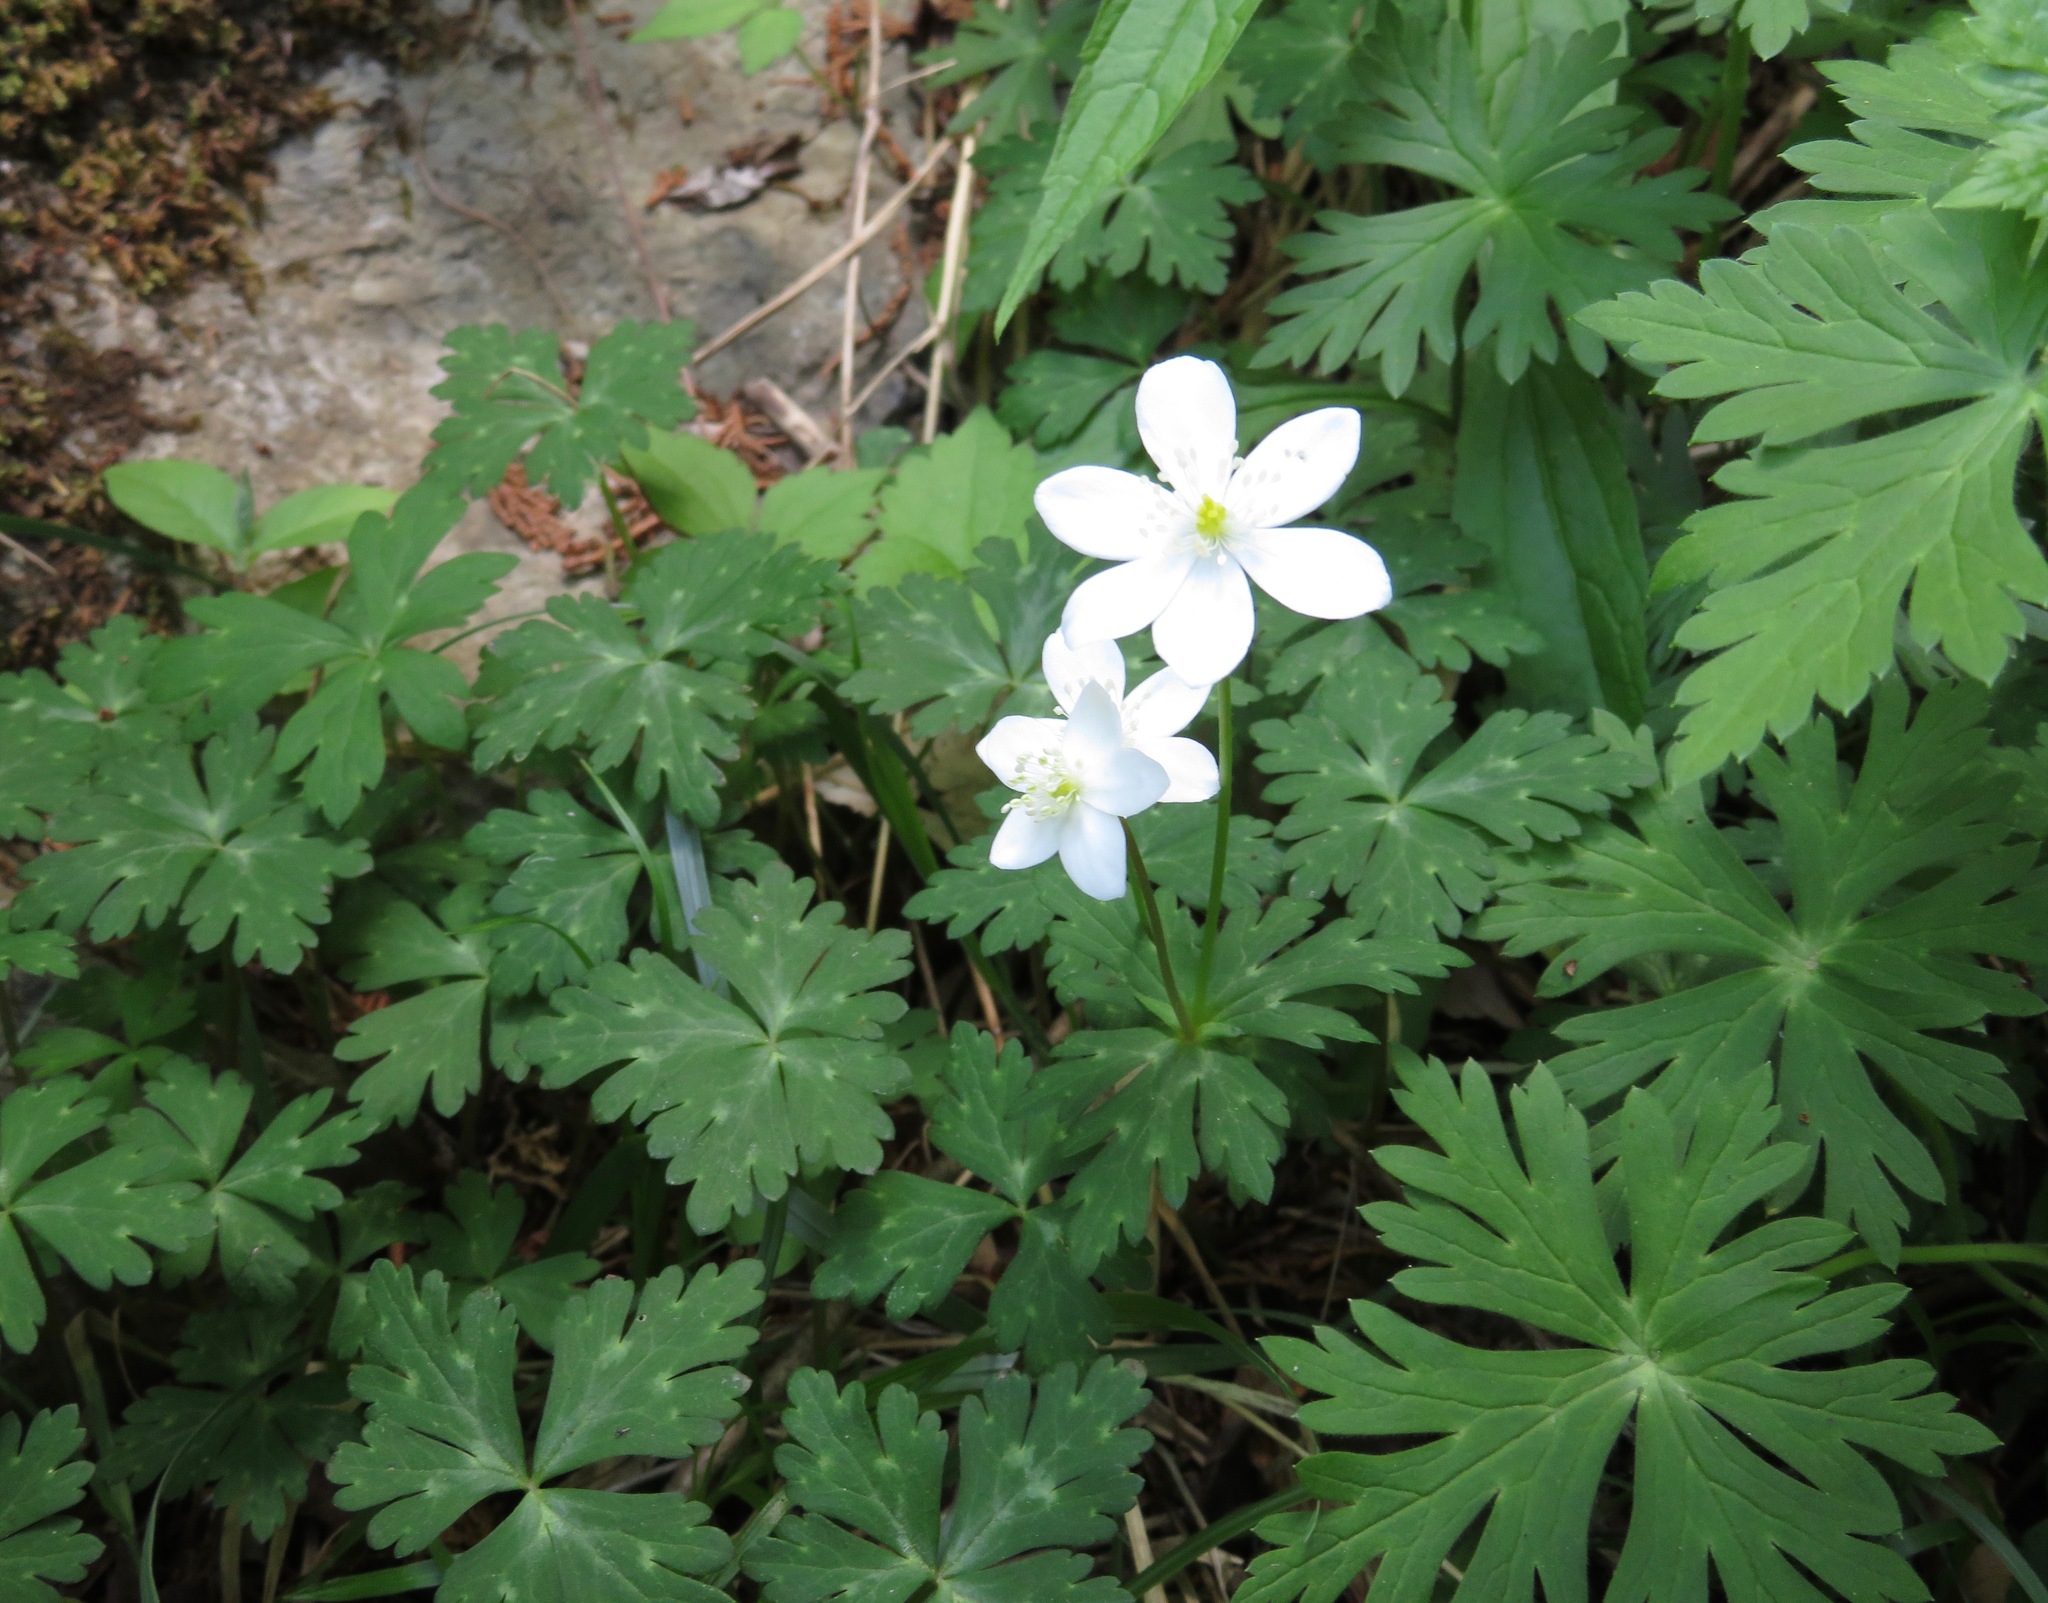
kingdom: Plantae
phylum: Tracheophyta
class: Magnoliopsida
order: Ranunculales
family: Ranunculaceae
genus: Anemonastrum
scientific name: Anemonastrum flaccidum
